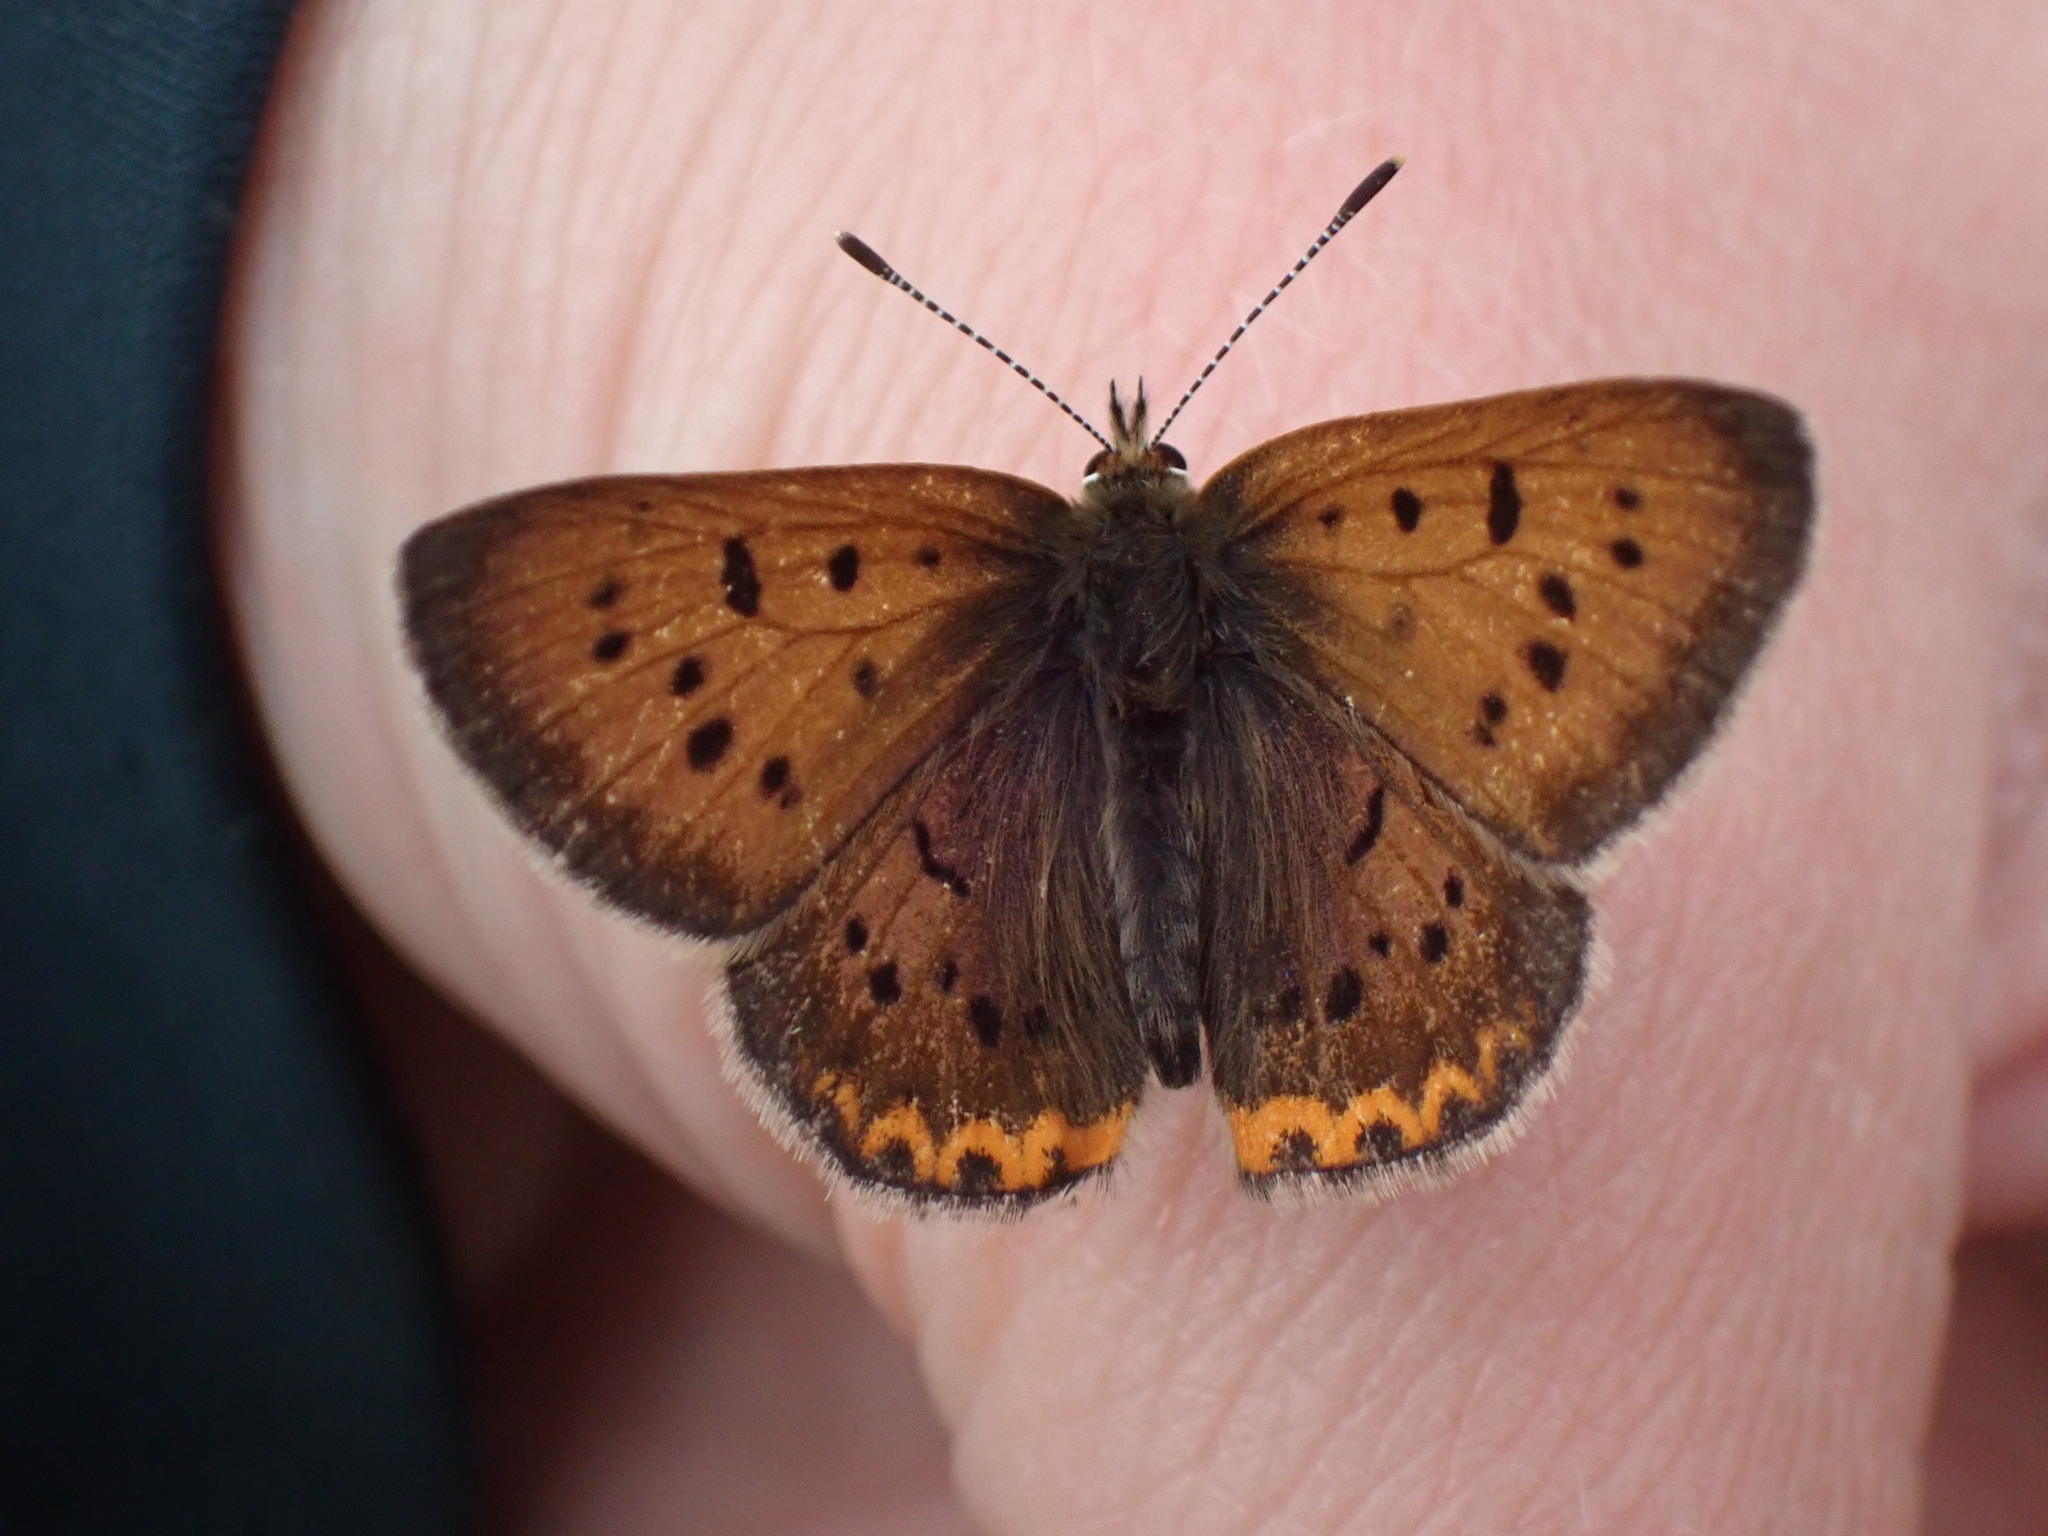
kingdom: Animalia
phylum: Arthropoda
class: Insecta
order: Lepidoptera
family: Lycaenidae
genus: Tharsalea
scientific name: Tharsalea helloides
